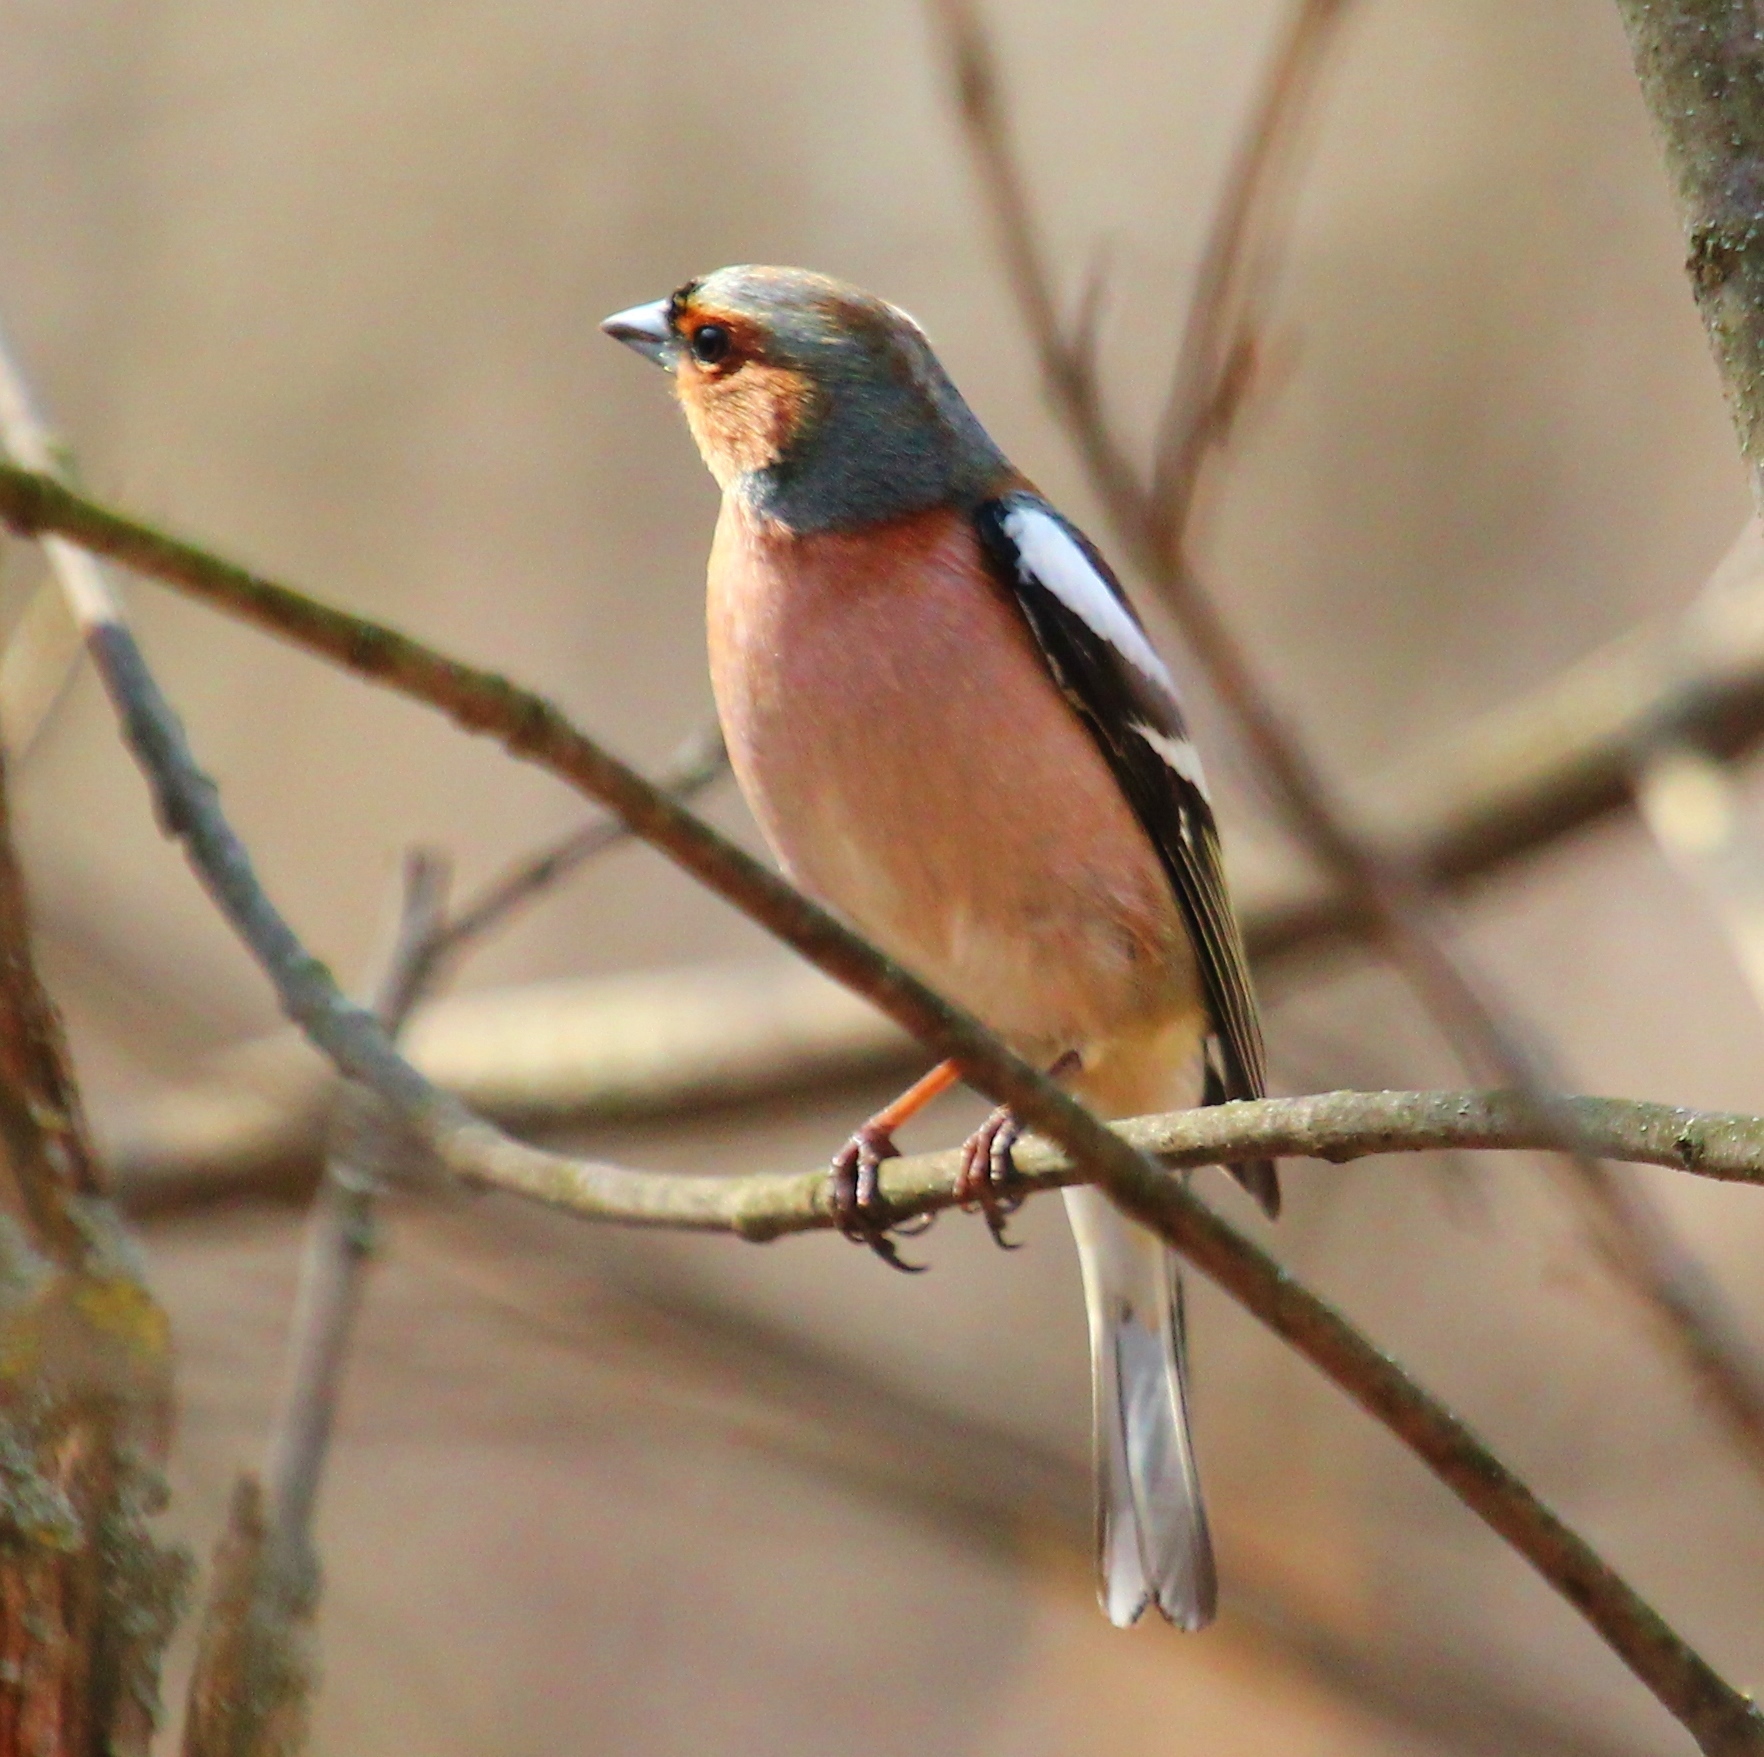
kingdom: Animalia
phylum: Chordata
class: Aves
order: Passeriformes
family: Fringillidae
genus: Fringilla
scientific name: Fringilla coelebs
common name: Common chaffinch
